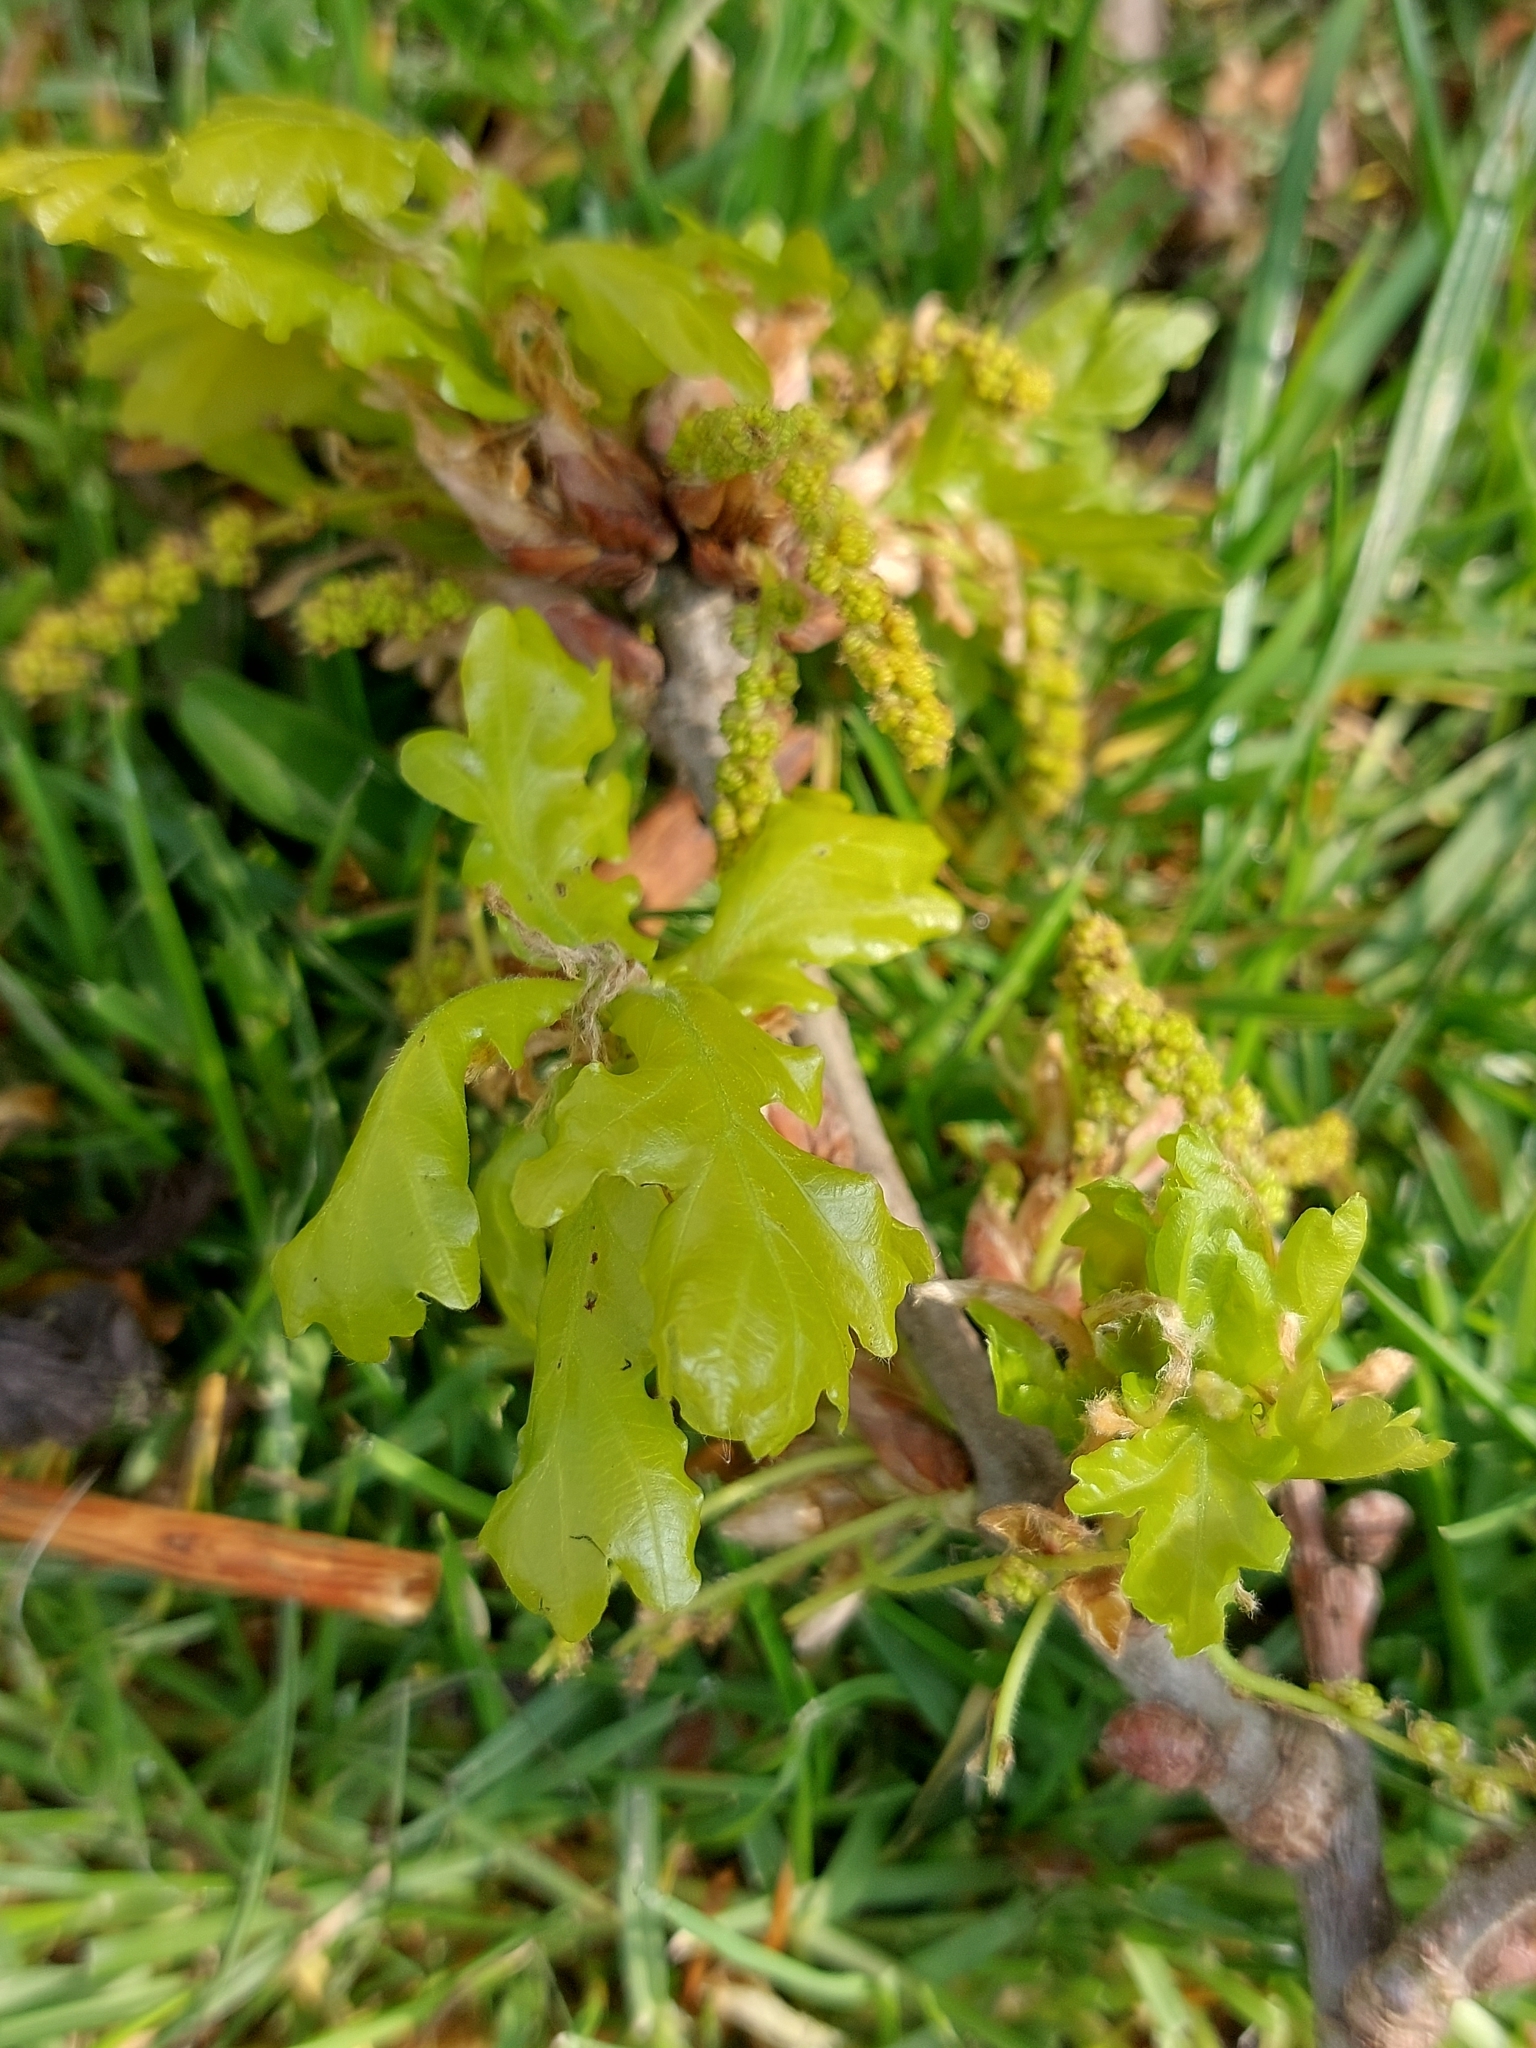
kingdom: Plantae
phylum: Tracheophyta
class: Magnoliopsida
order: Fagales
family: Fagaceae
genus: Quercus
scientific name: Quercus robur
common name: Pedunculate oak
